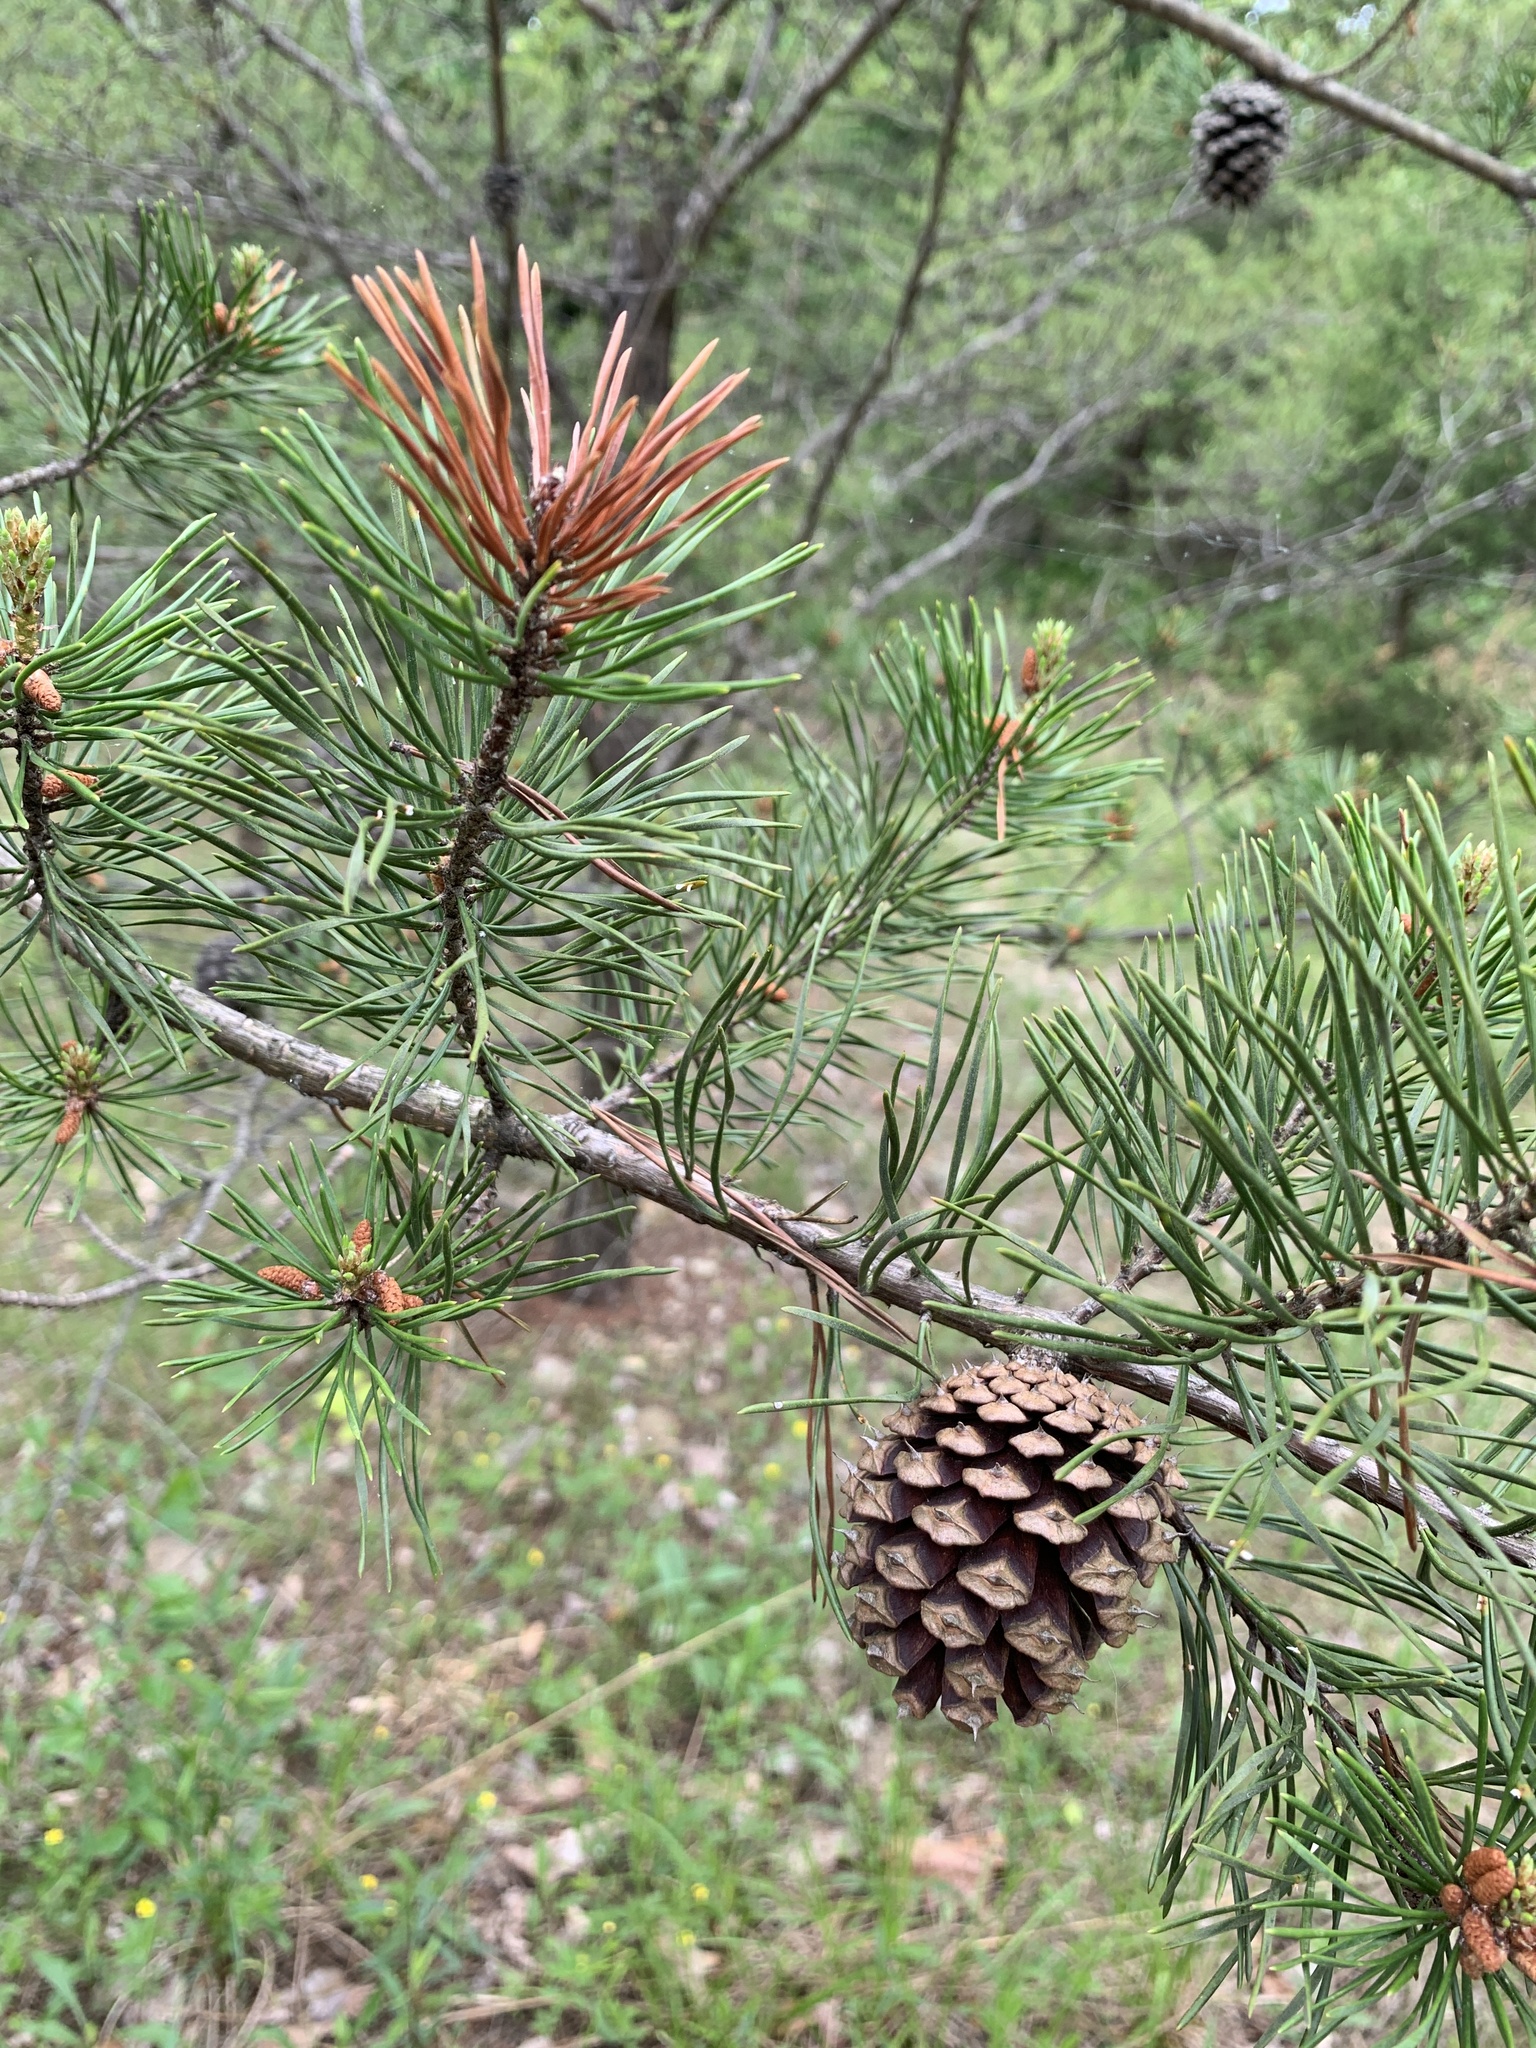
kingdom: Plantae
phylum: Tracheophyta
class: Pinopsida
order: Pinales
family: Pinaceae
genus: Pinus
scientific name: Pinus virginiana
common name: Scrub pine
